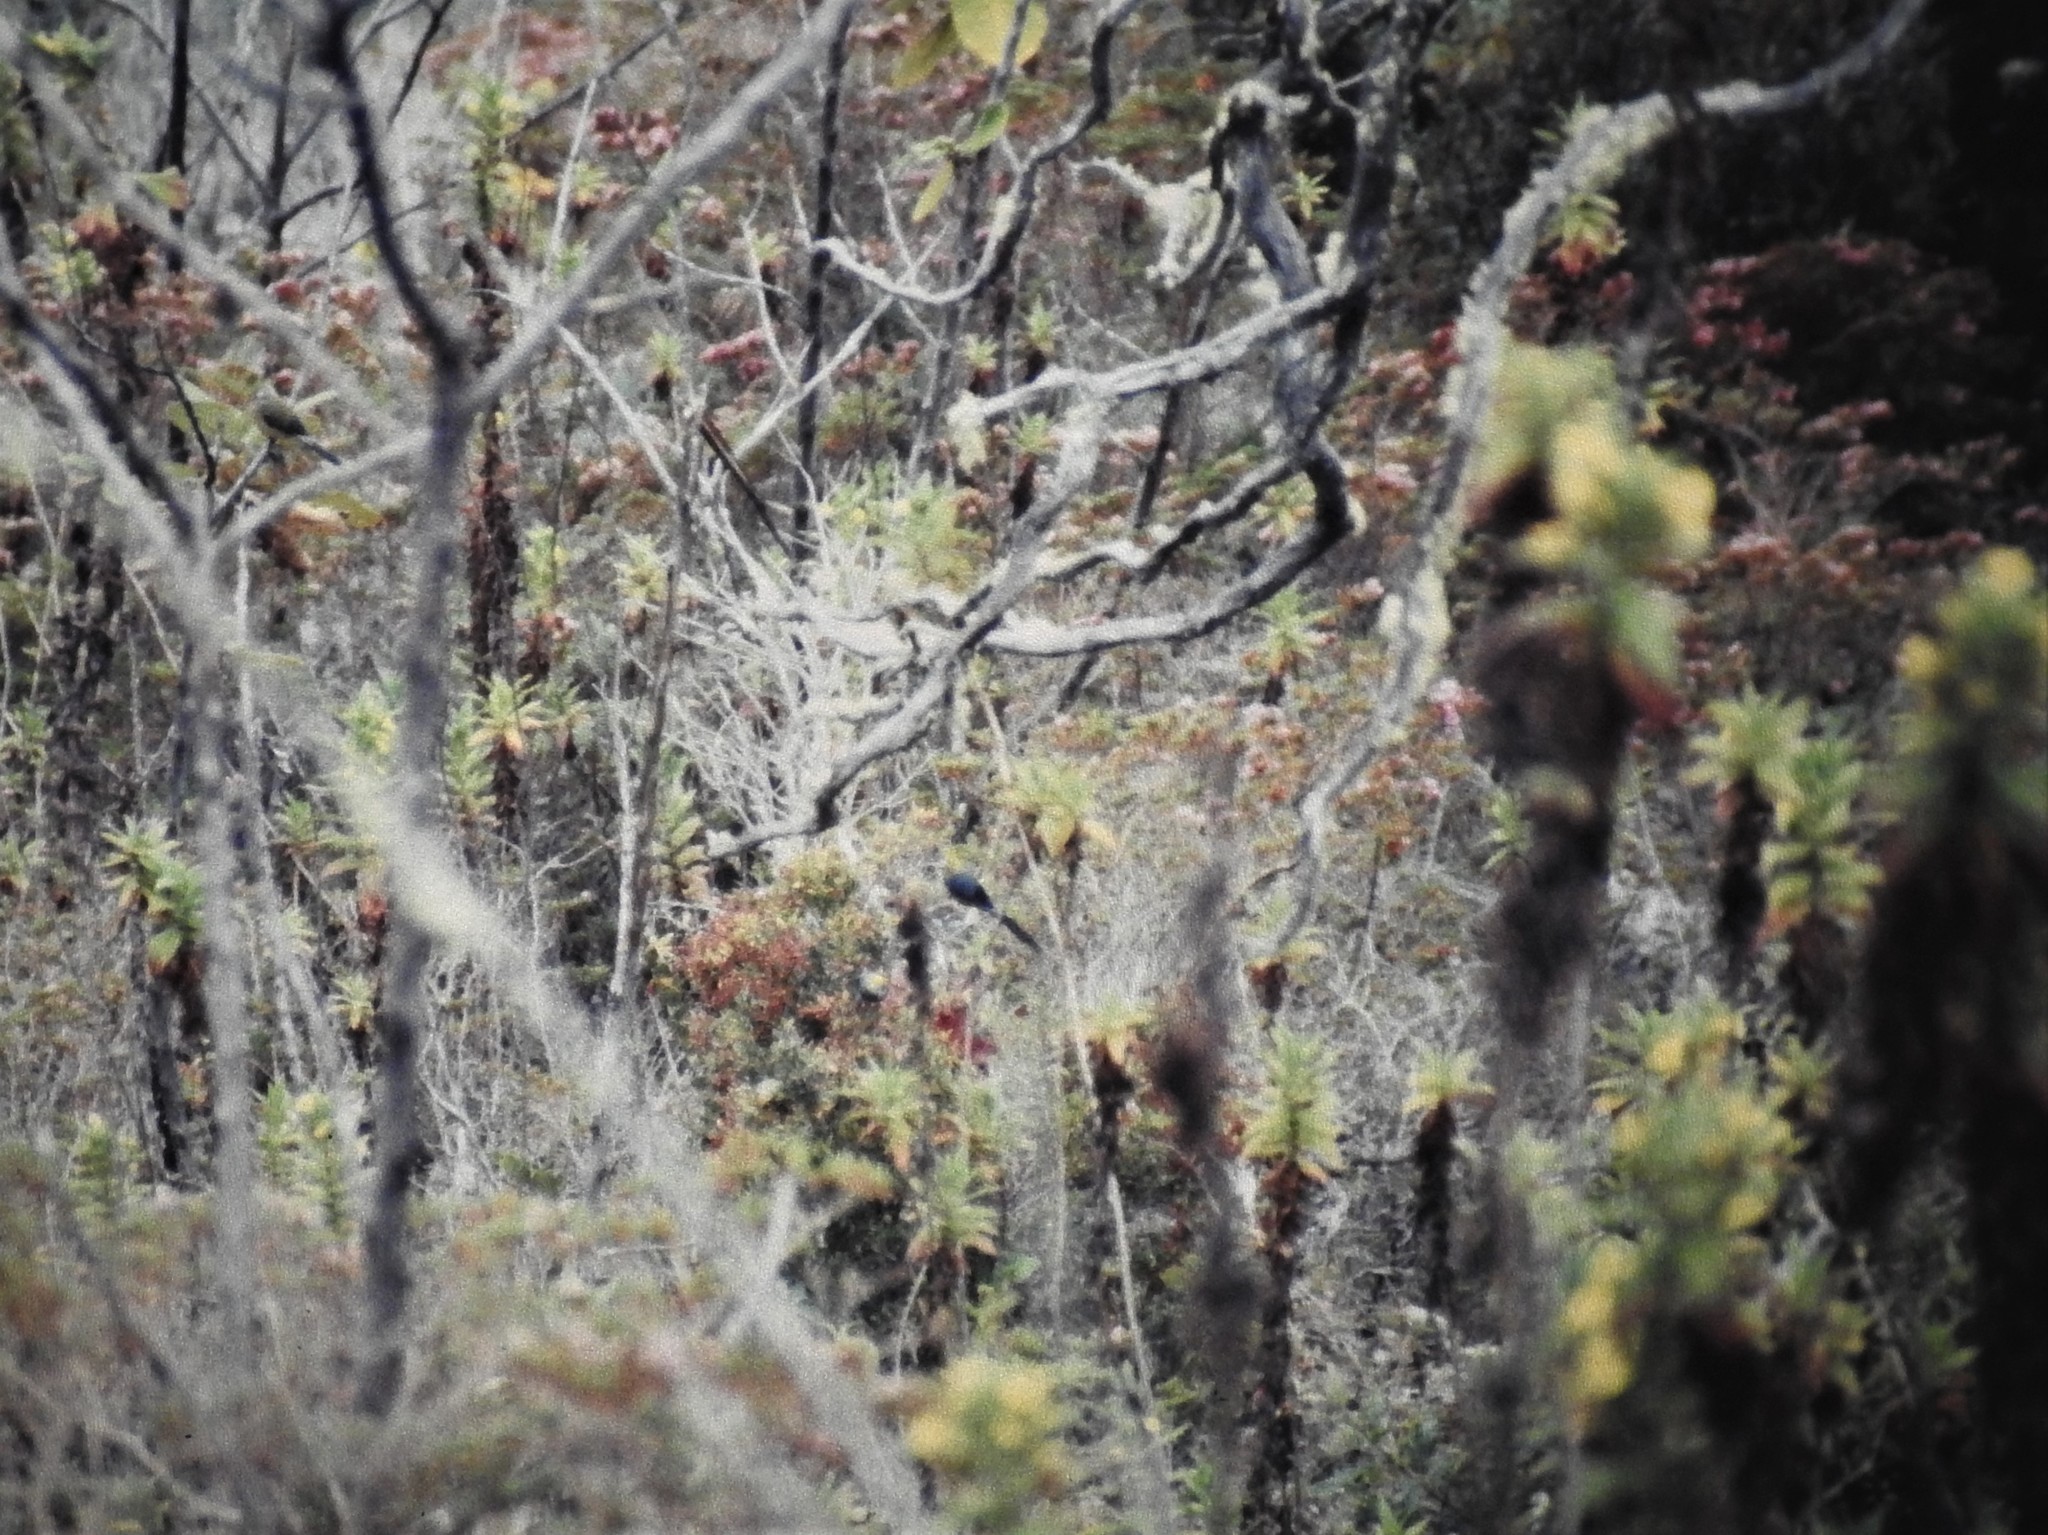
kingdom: Animalia
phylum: Chordata
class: Aves
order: Passeriformes
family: Ptilogonatidae
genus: Ptilogonys
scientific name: Ptilogonys caudatus
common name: Long-tailed silky-flycatcher
